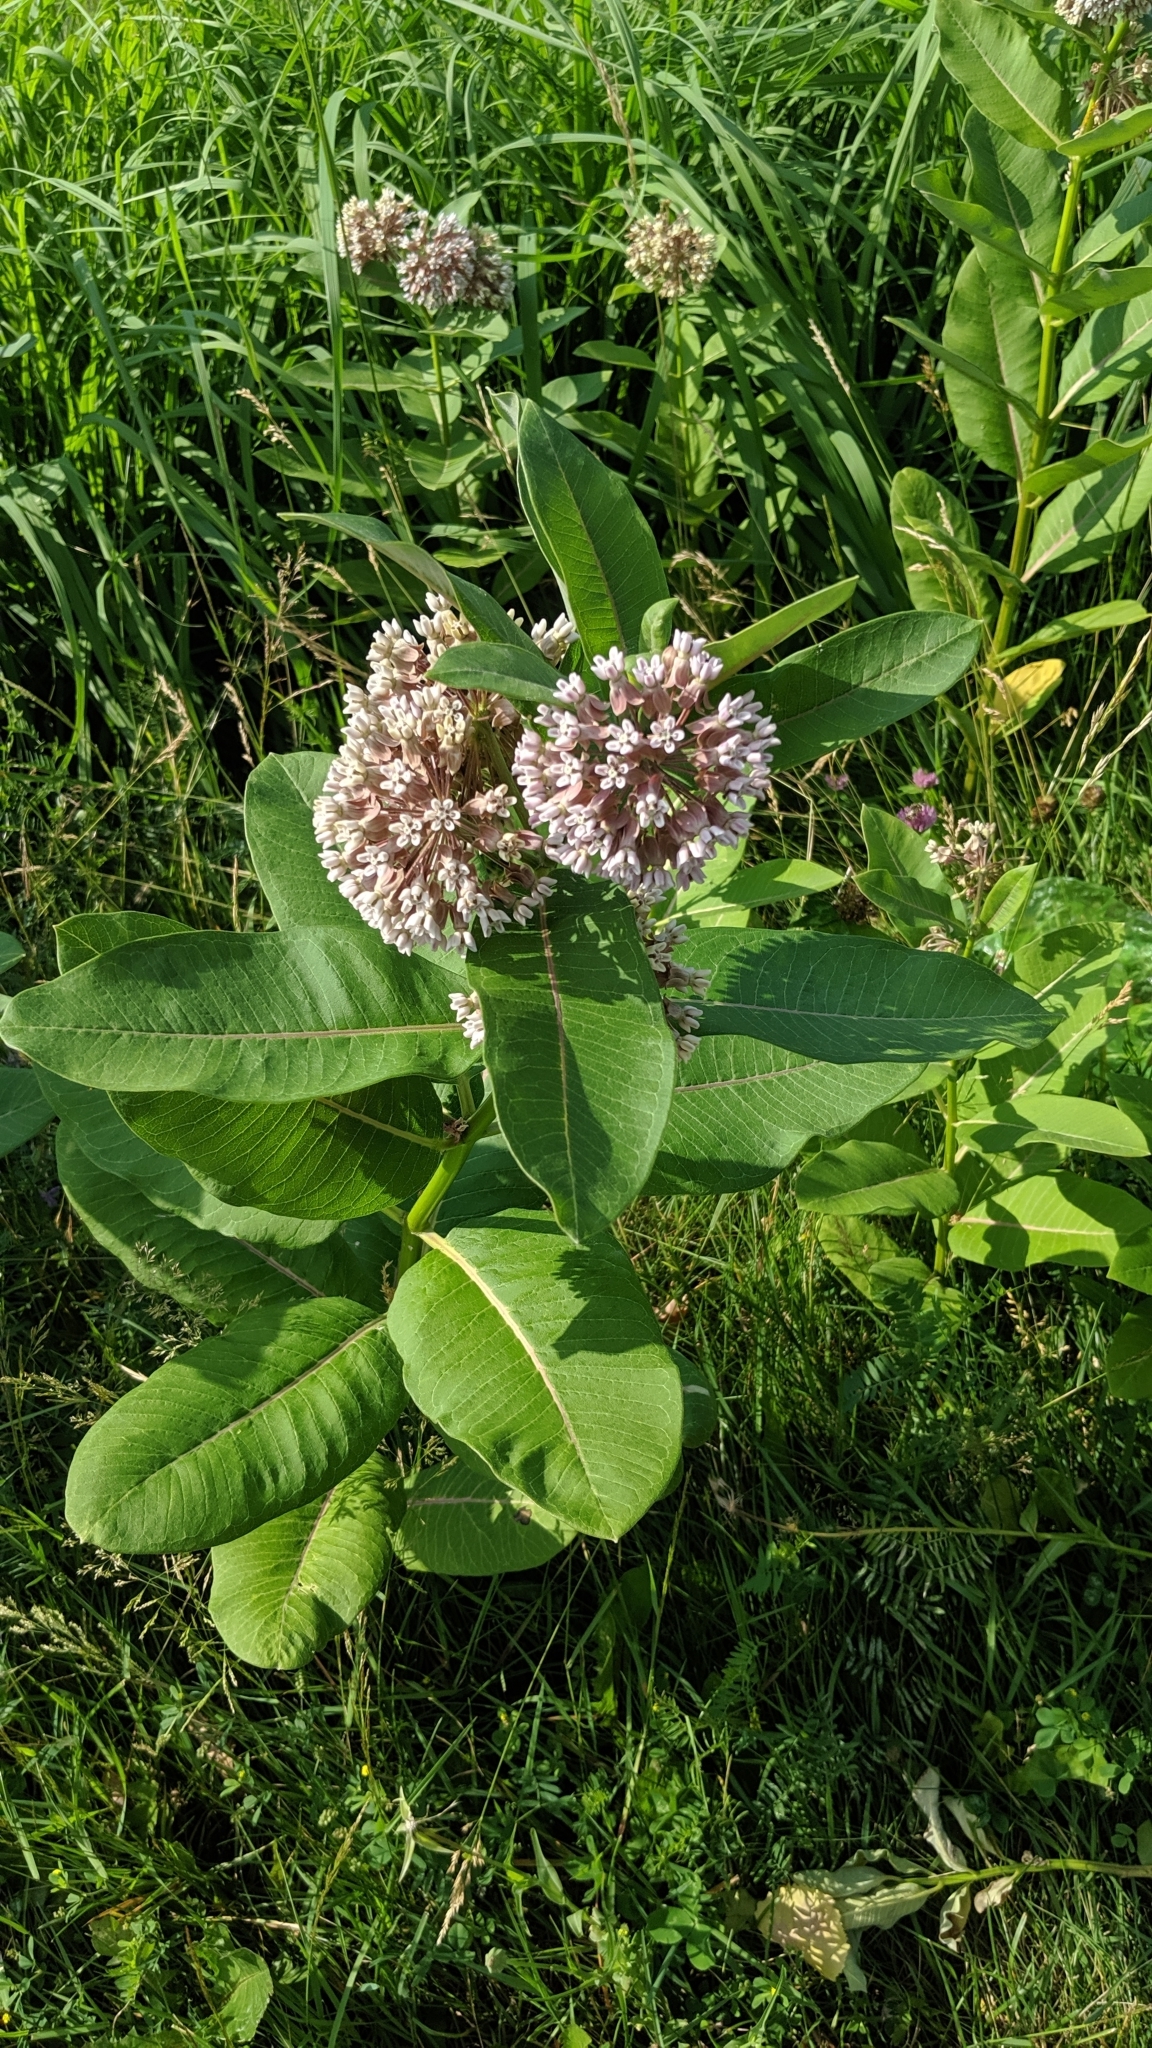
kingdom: Plantae
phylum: Tracheophyta
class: Magnoliopsida
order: Gentianales
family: Apocynaceae
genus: Asclepias
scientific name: Asclepias syriaca
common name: Common milkweed
